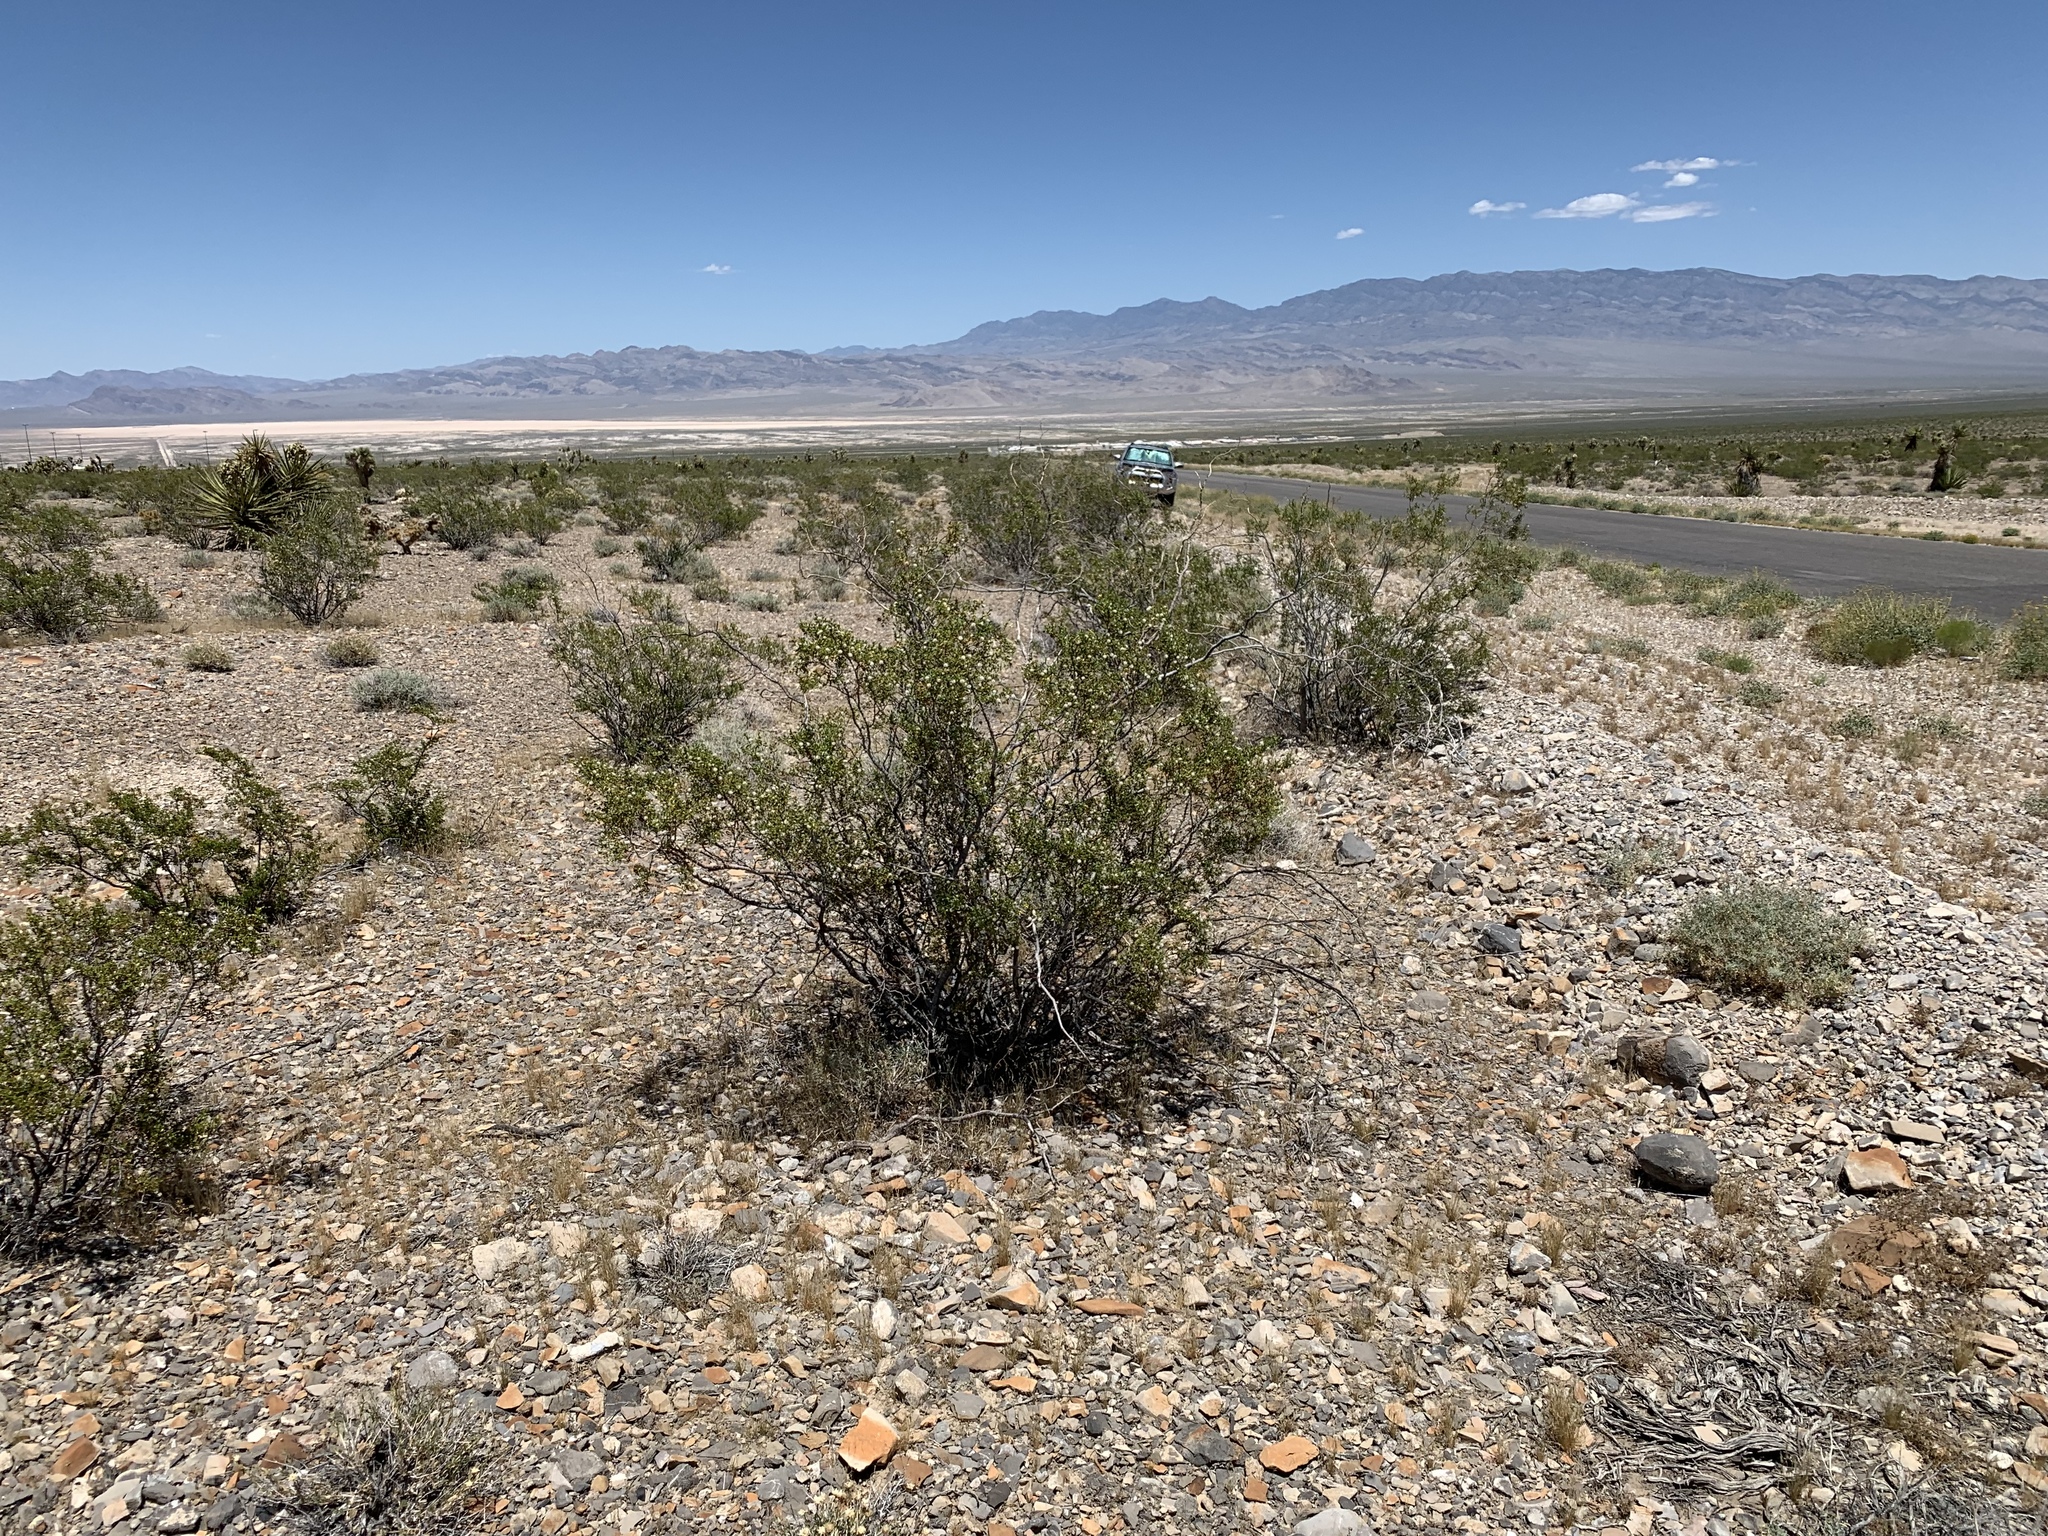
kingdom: Plantae
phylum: Tracheophyta
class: Magnoliopsida
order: Zygophyllales
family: Zygophyllaceae
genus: Larrea
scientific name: Larrea tridentata
